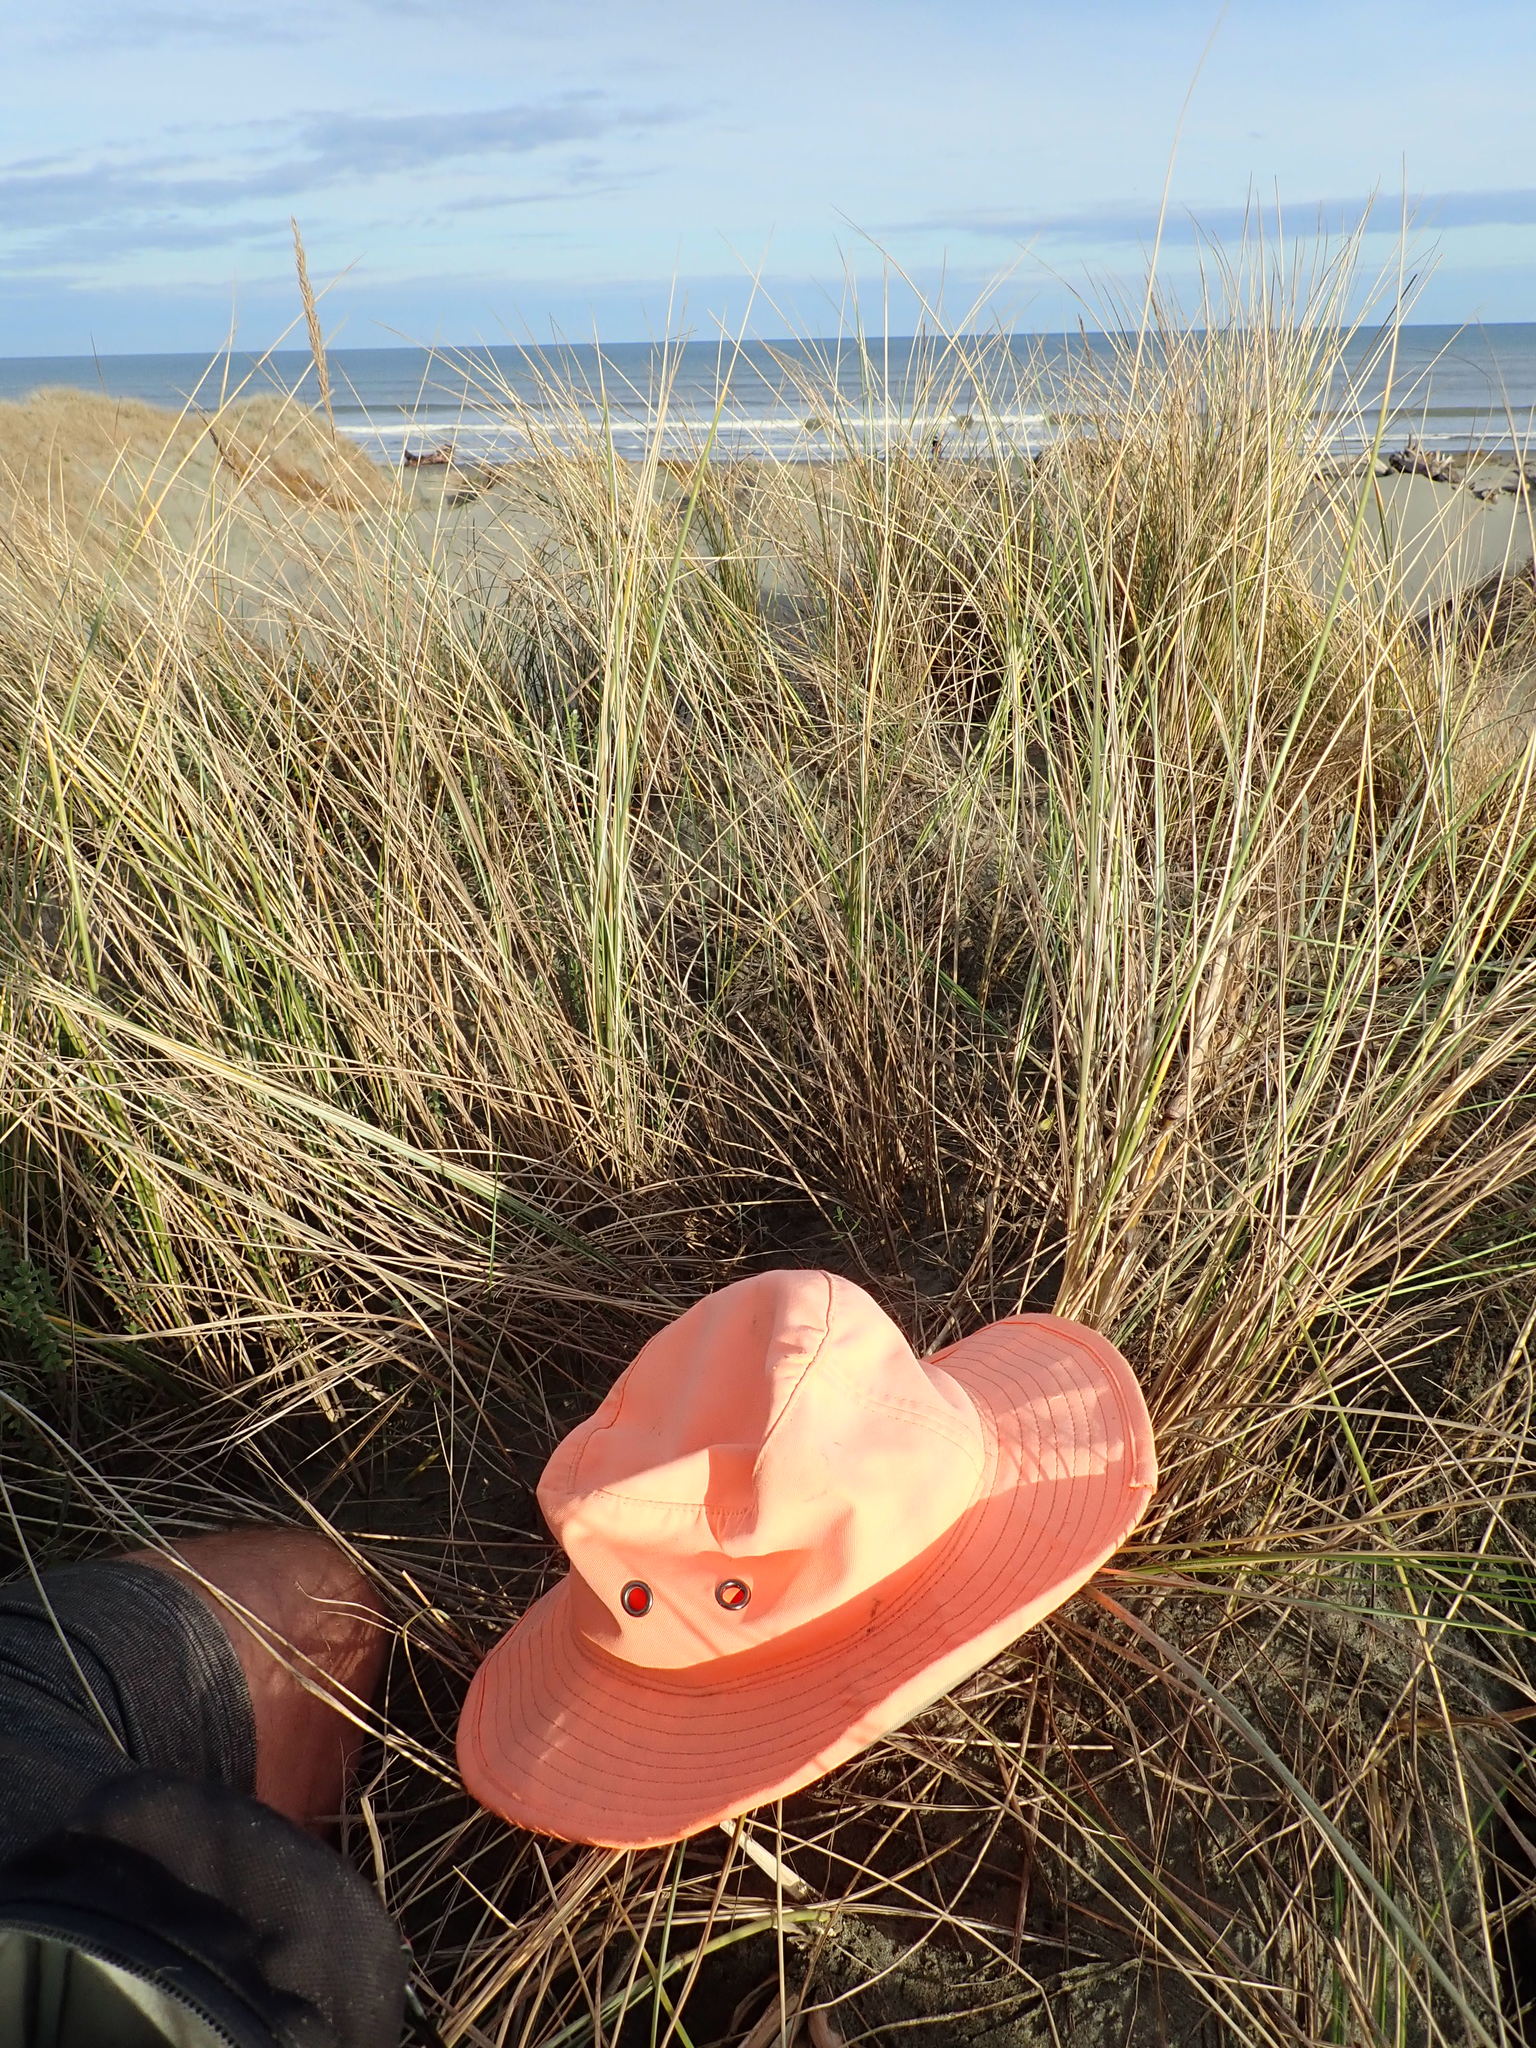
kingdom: Plantae
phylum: Tracheophyta
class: Magnoliopsida
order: Gentianales
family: Rubiaceae
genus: Coprosma
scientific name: Coprosma acerosa
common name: Sand coprosma
